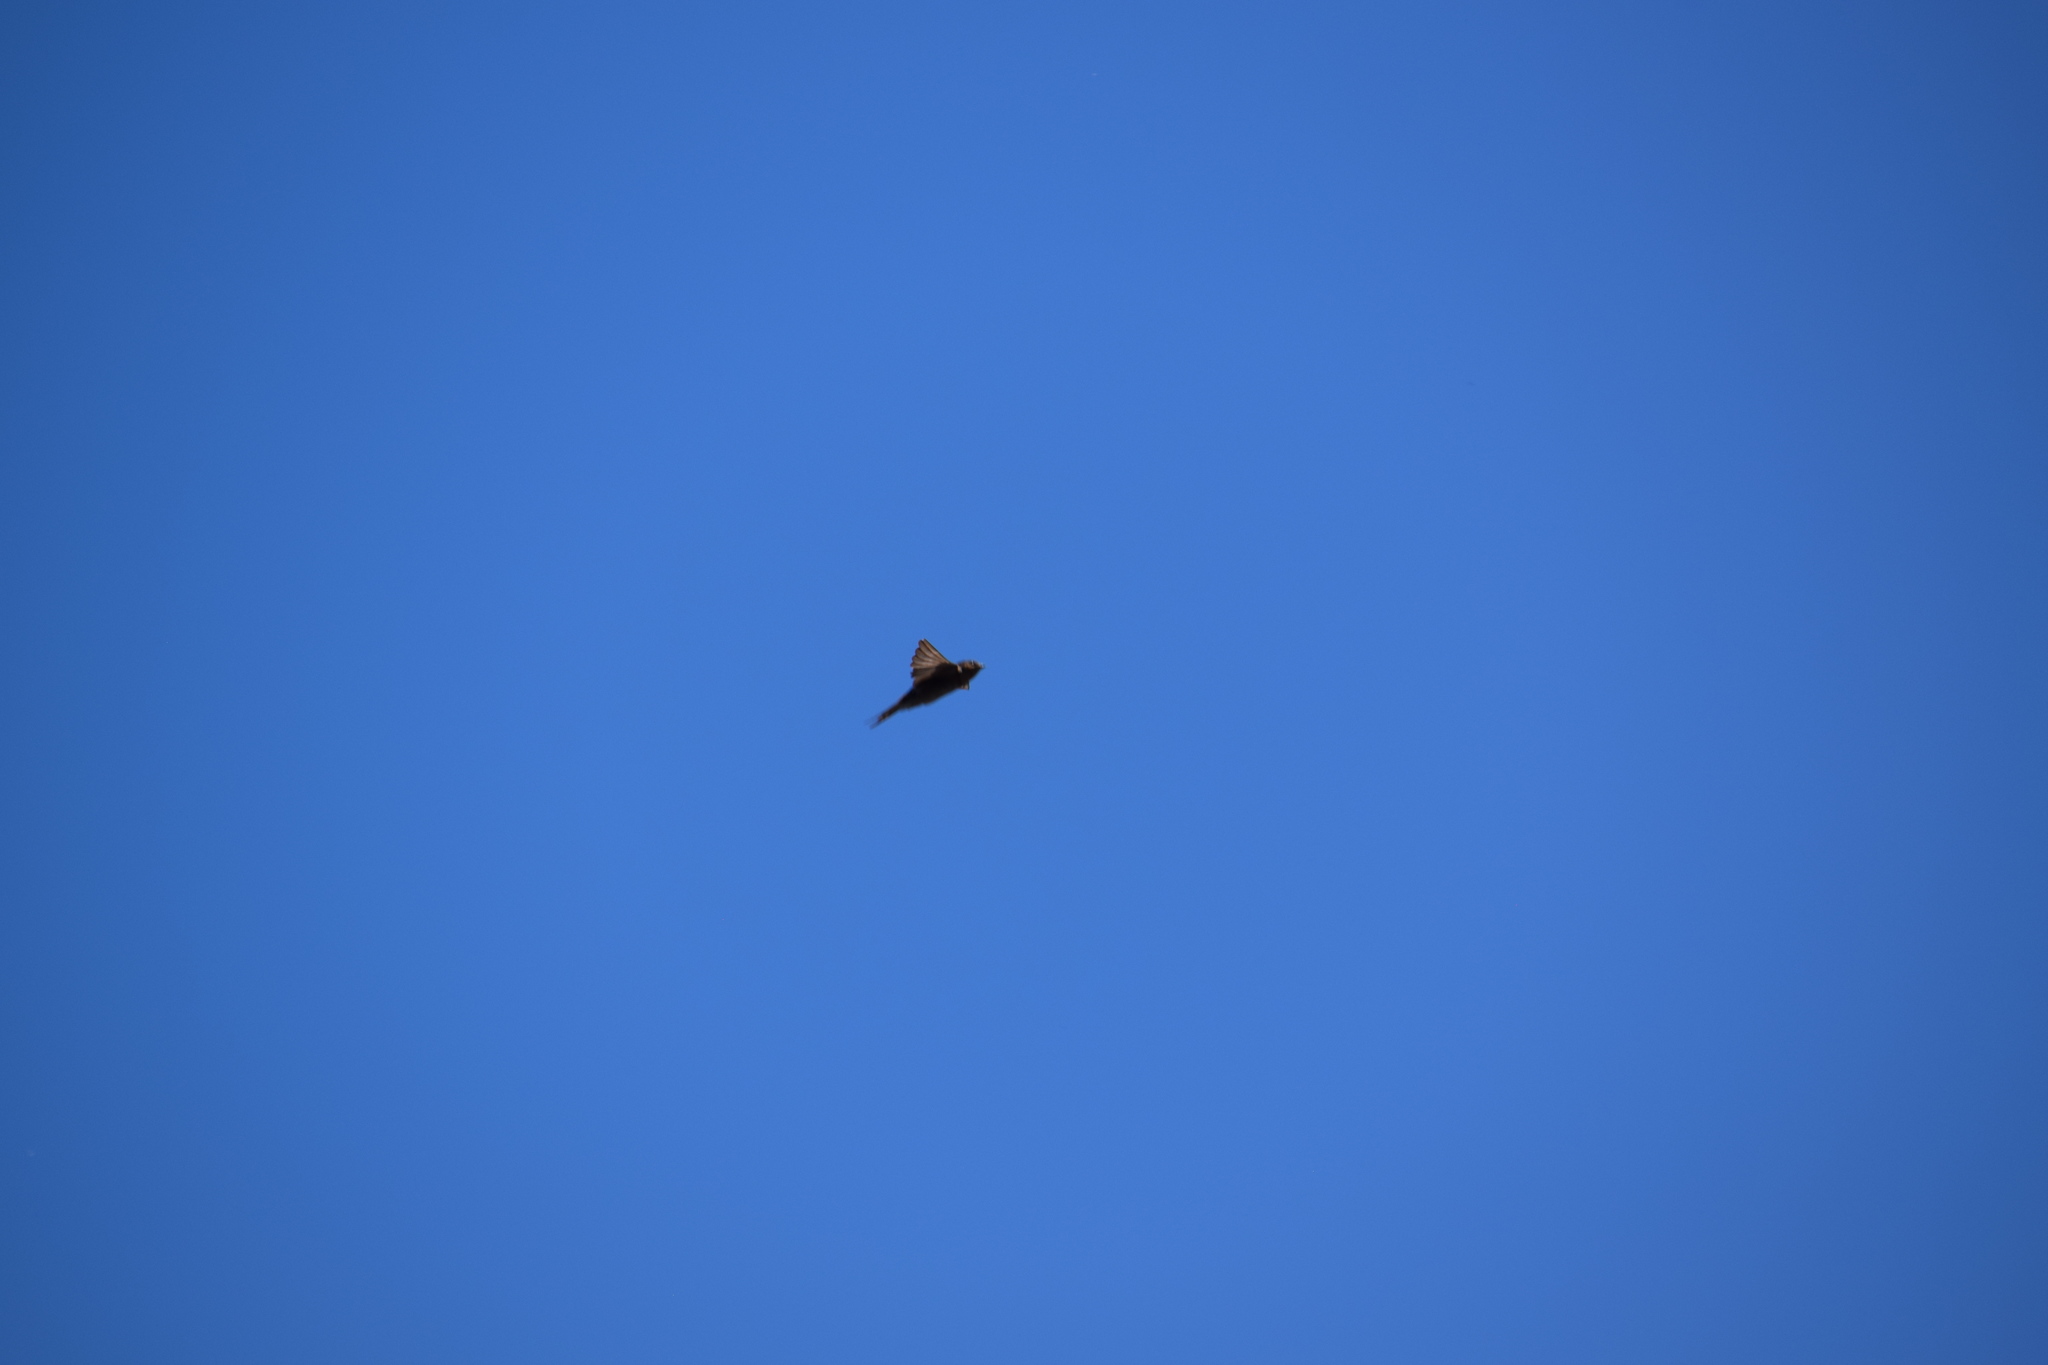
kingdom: Animalia
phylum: Chordata
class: Aves
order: Passeriformes
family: Hirundinidae
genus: Hirundo
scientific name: Hirundo neoxena
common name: Welcome swallow
